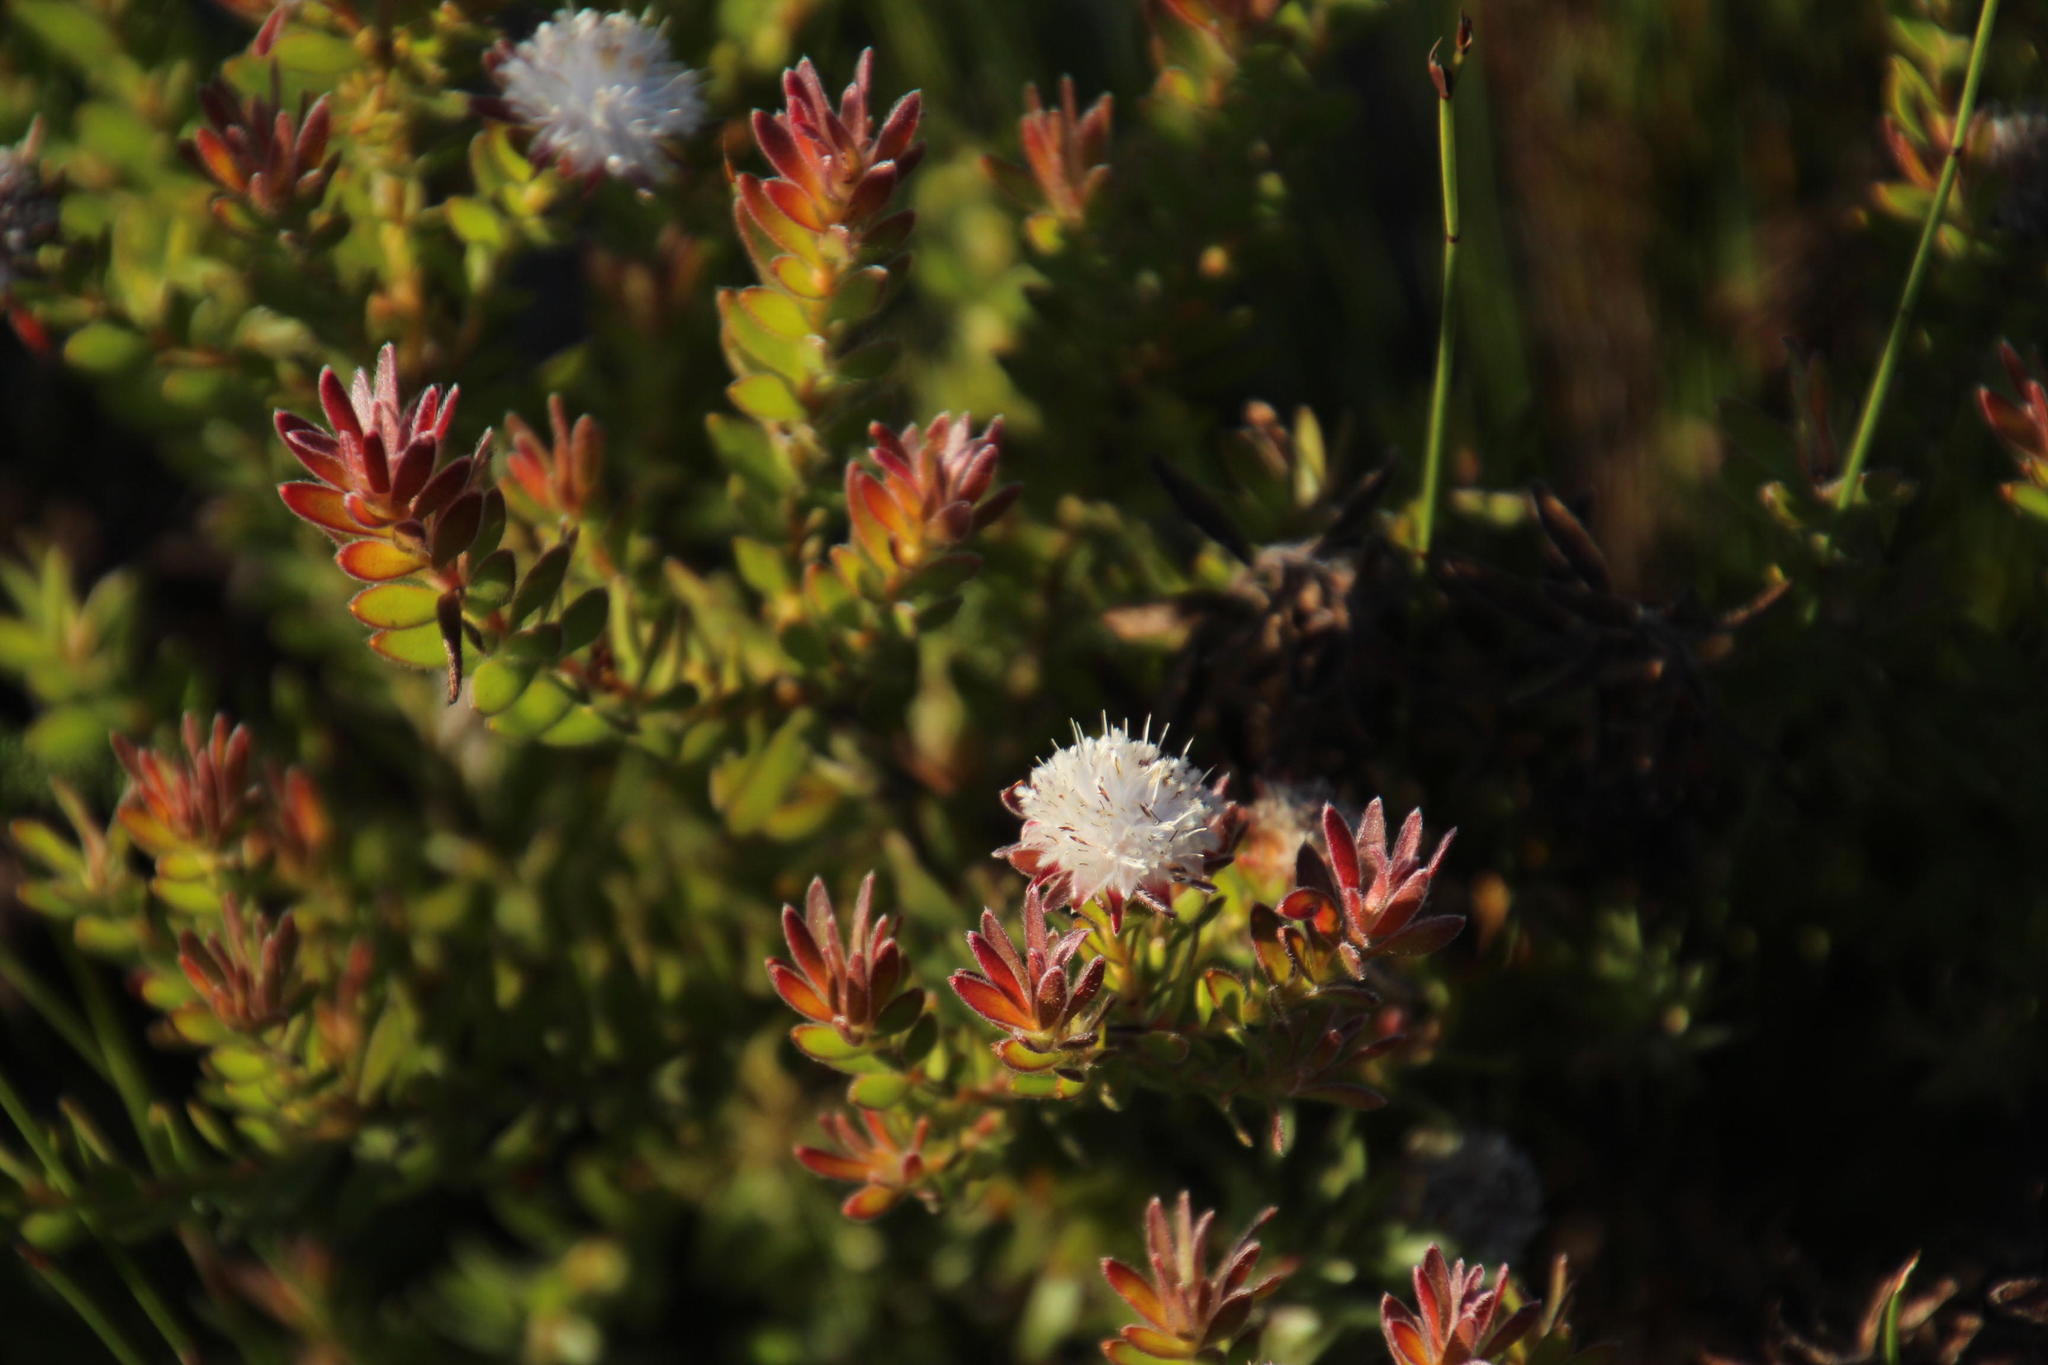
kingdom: Plantae
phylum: Tracheophyta
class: Magnoliopsida
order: Proteales
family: Proteaceae
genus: Diastella
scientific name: Diastella divaricata
